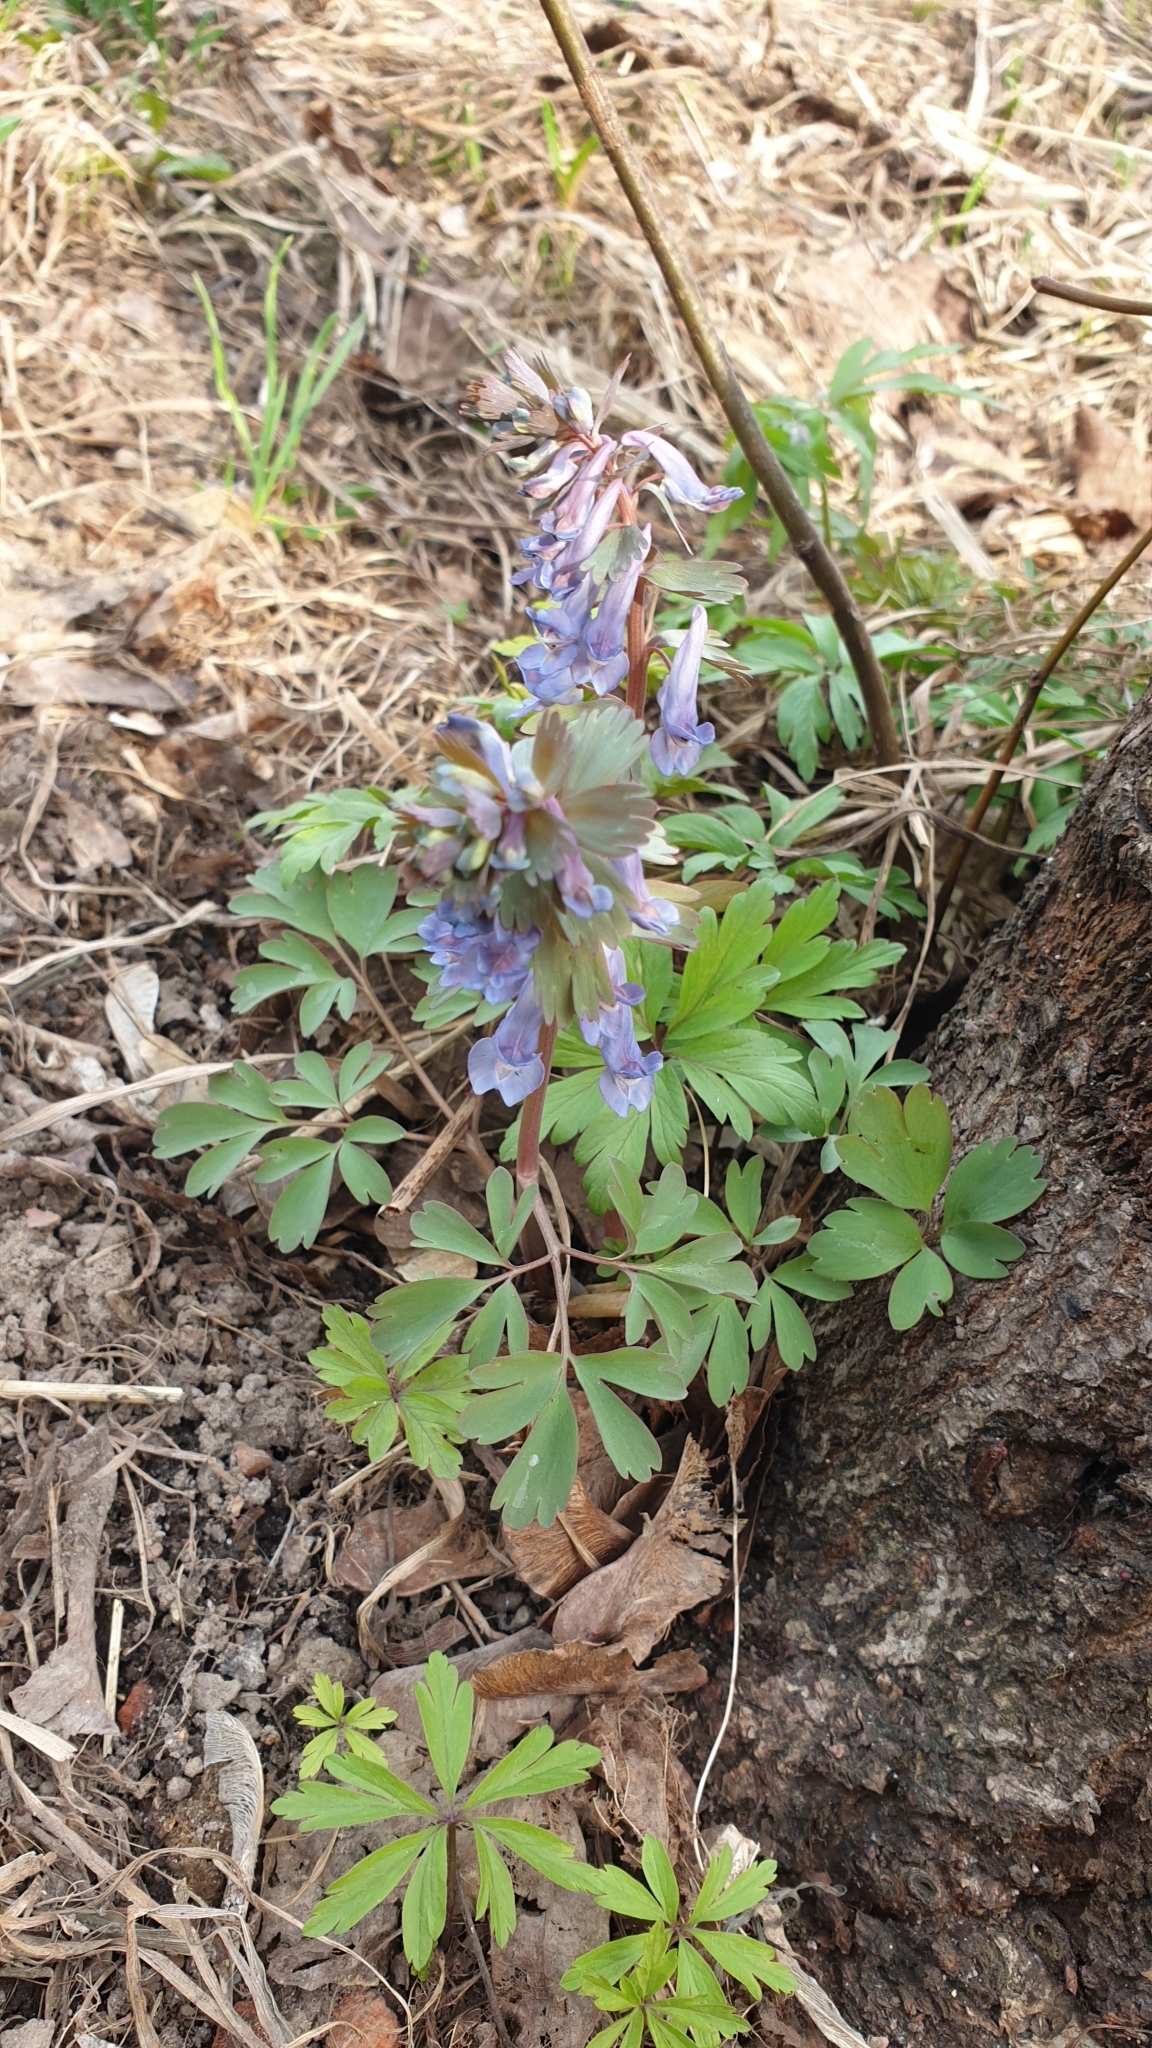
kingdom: Plantae
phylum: Tracheophyta
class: Magnoliopsida
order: Ranunculales
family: Papaveraceae
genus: Corydalis
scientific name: Corydalis solida
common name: Bird-in-a-bush
